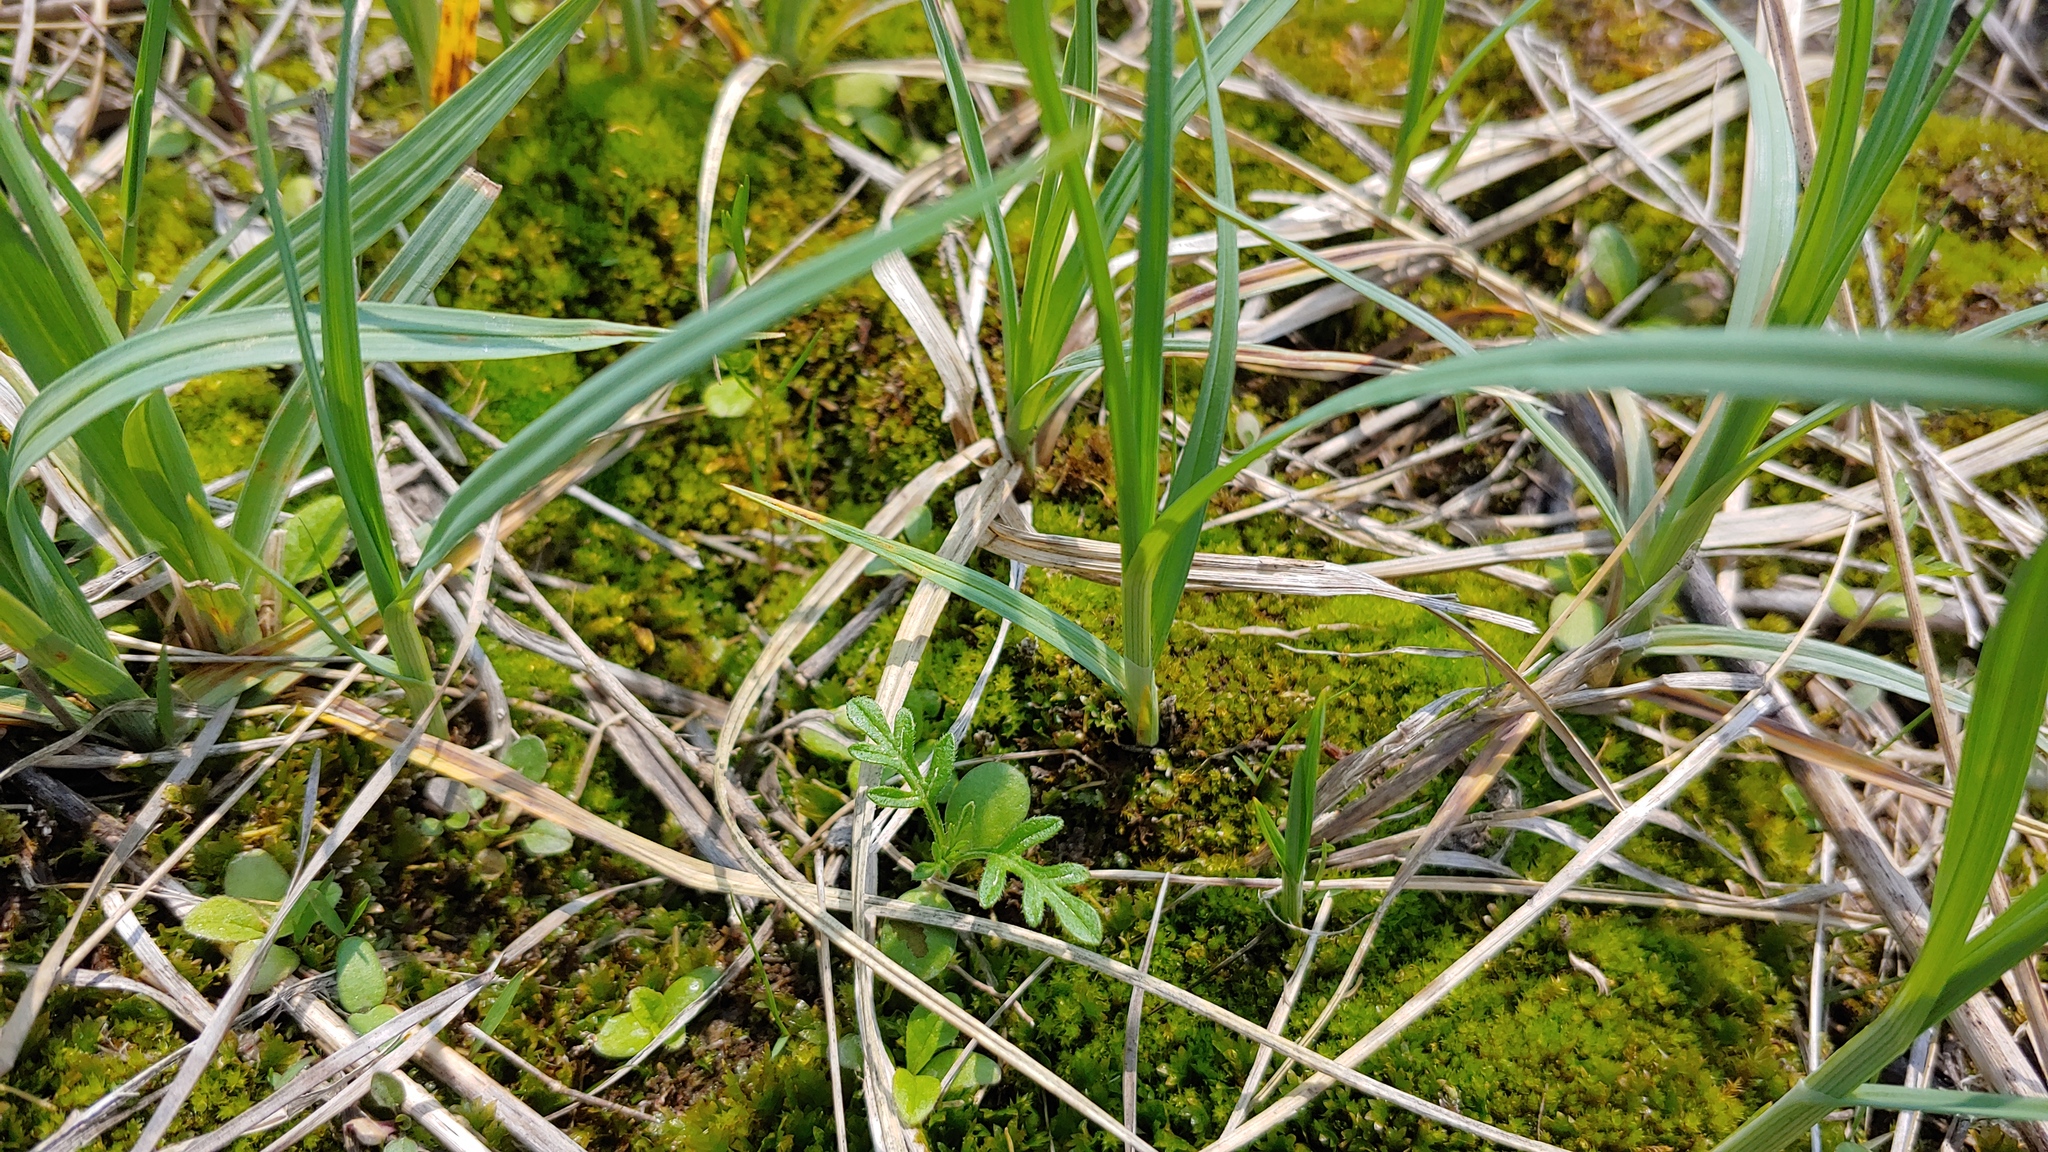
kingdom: Plantae
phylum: Tracheophyta
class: Liliopsida
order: Poales
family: Cyperaceae
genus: Carex
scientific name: Carex meadii
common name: Mead's sedge
